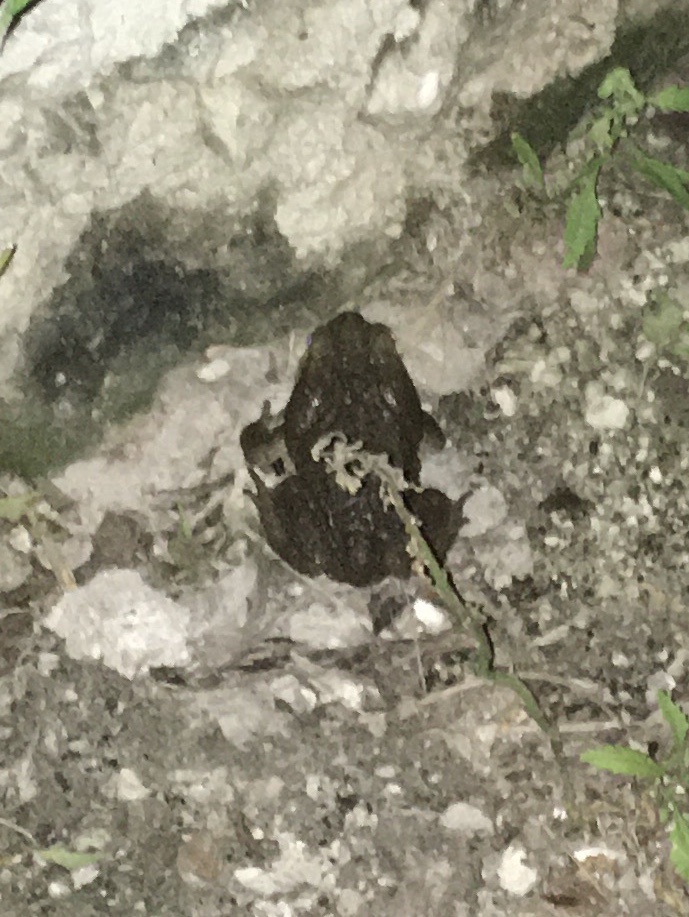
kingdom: Animalia
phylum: Chordata
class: Amphibia
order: Anura
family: Bufonidae
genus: Rhinella
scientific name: Rhinella horribilis
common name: Mesoamerican cane toad
